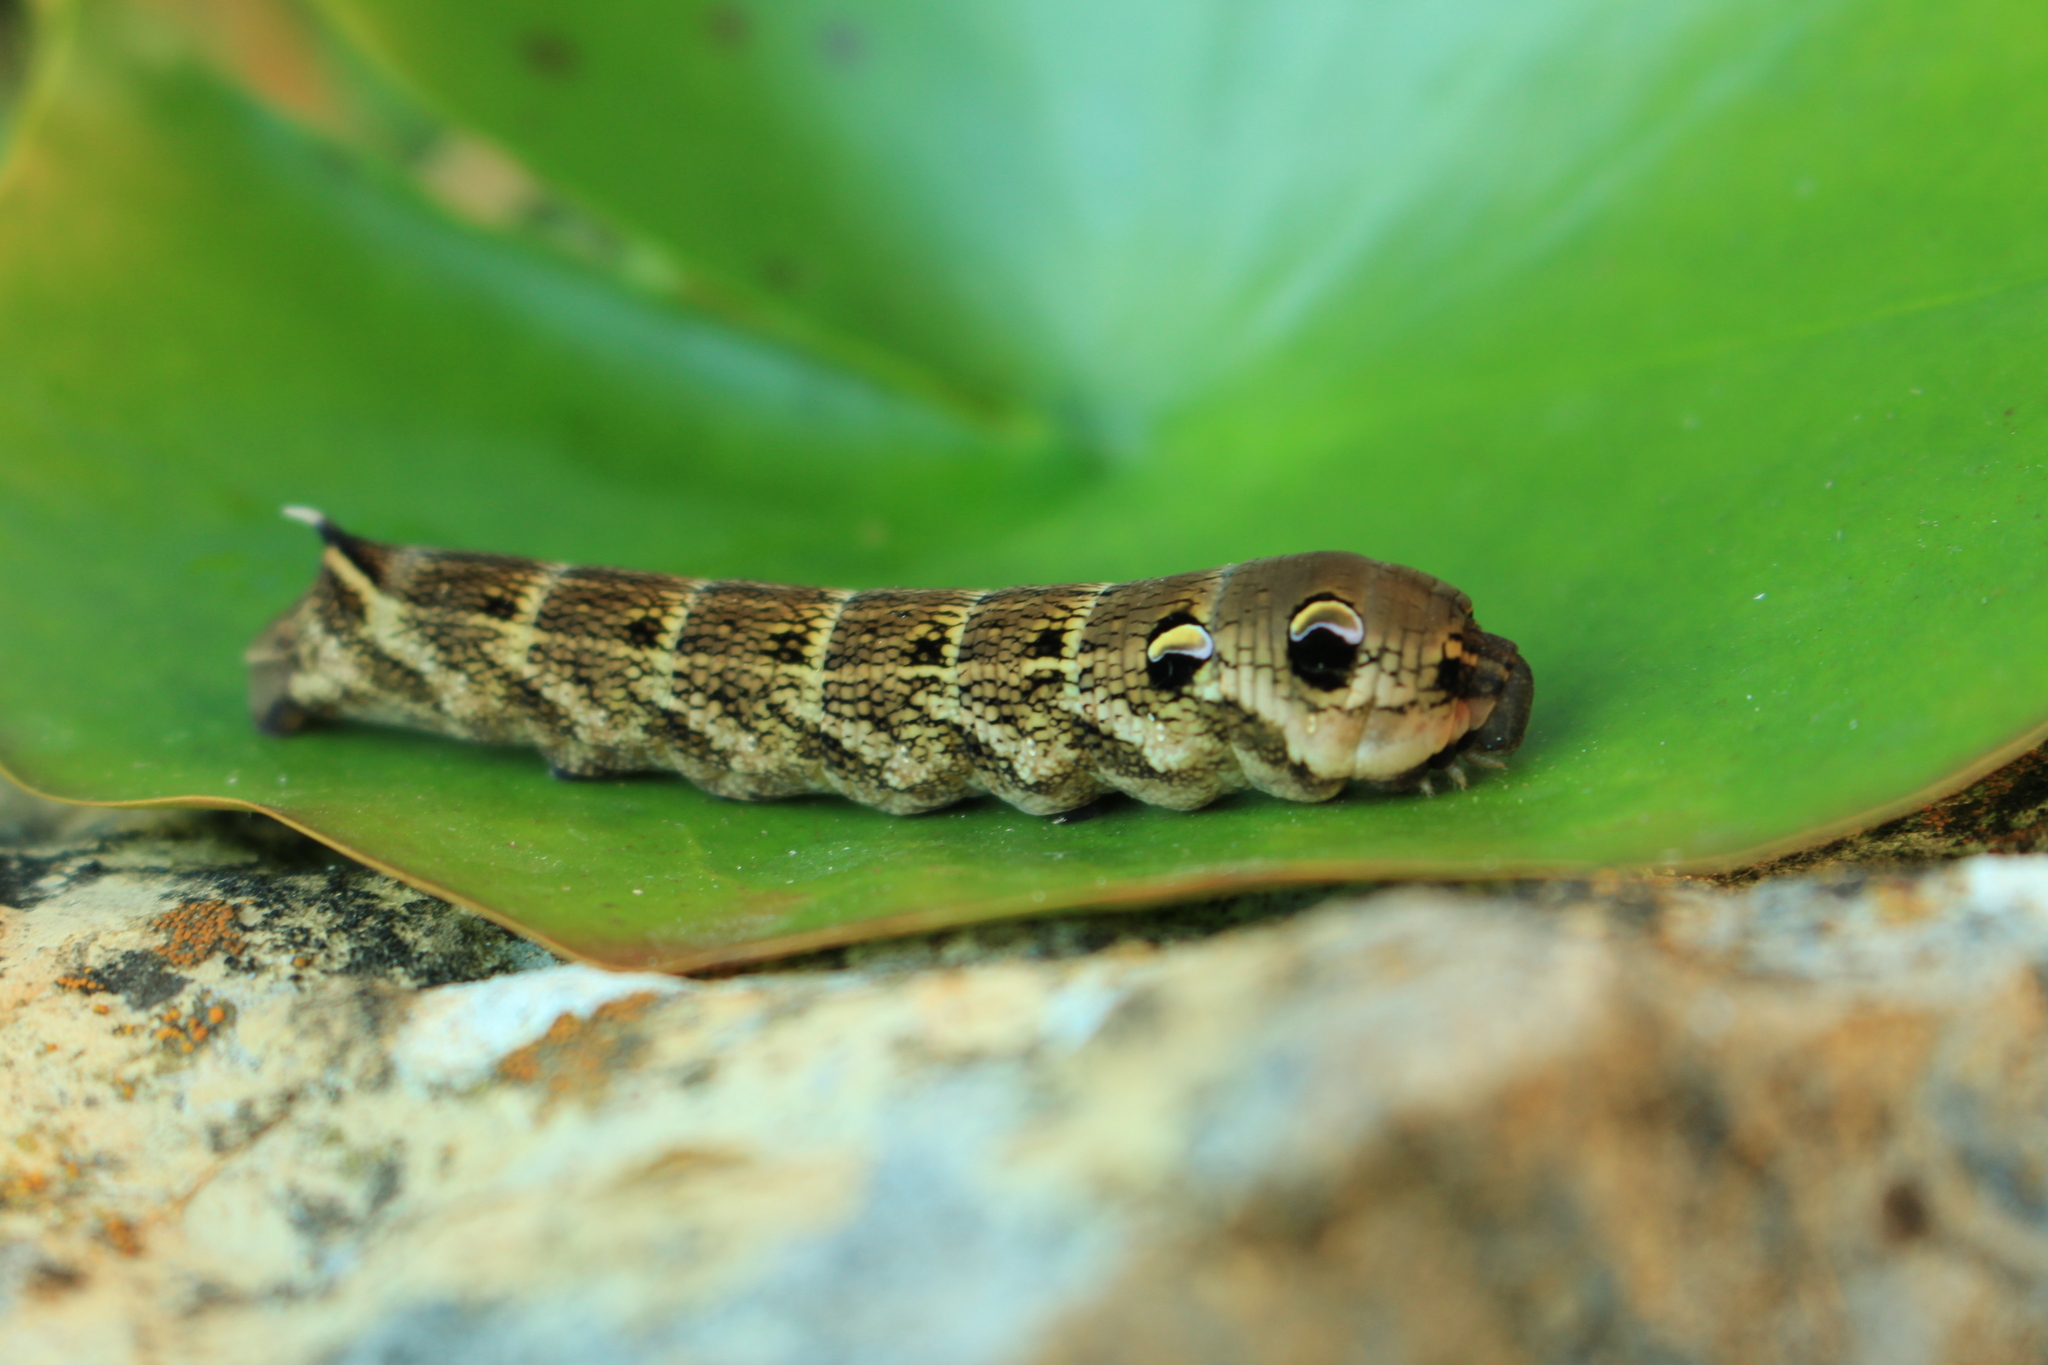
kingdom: Animalia
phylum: Arthropoda
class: Insecta
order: Lepidoptera
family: Sphingidae
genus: Deilephila
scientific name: Deilephila elpenor
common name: Elephant hawk-moth
